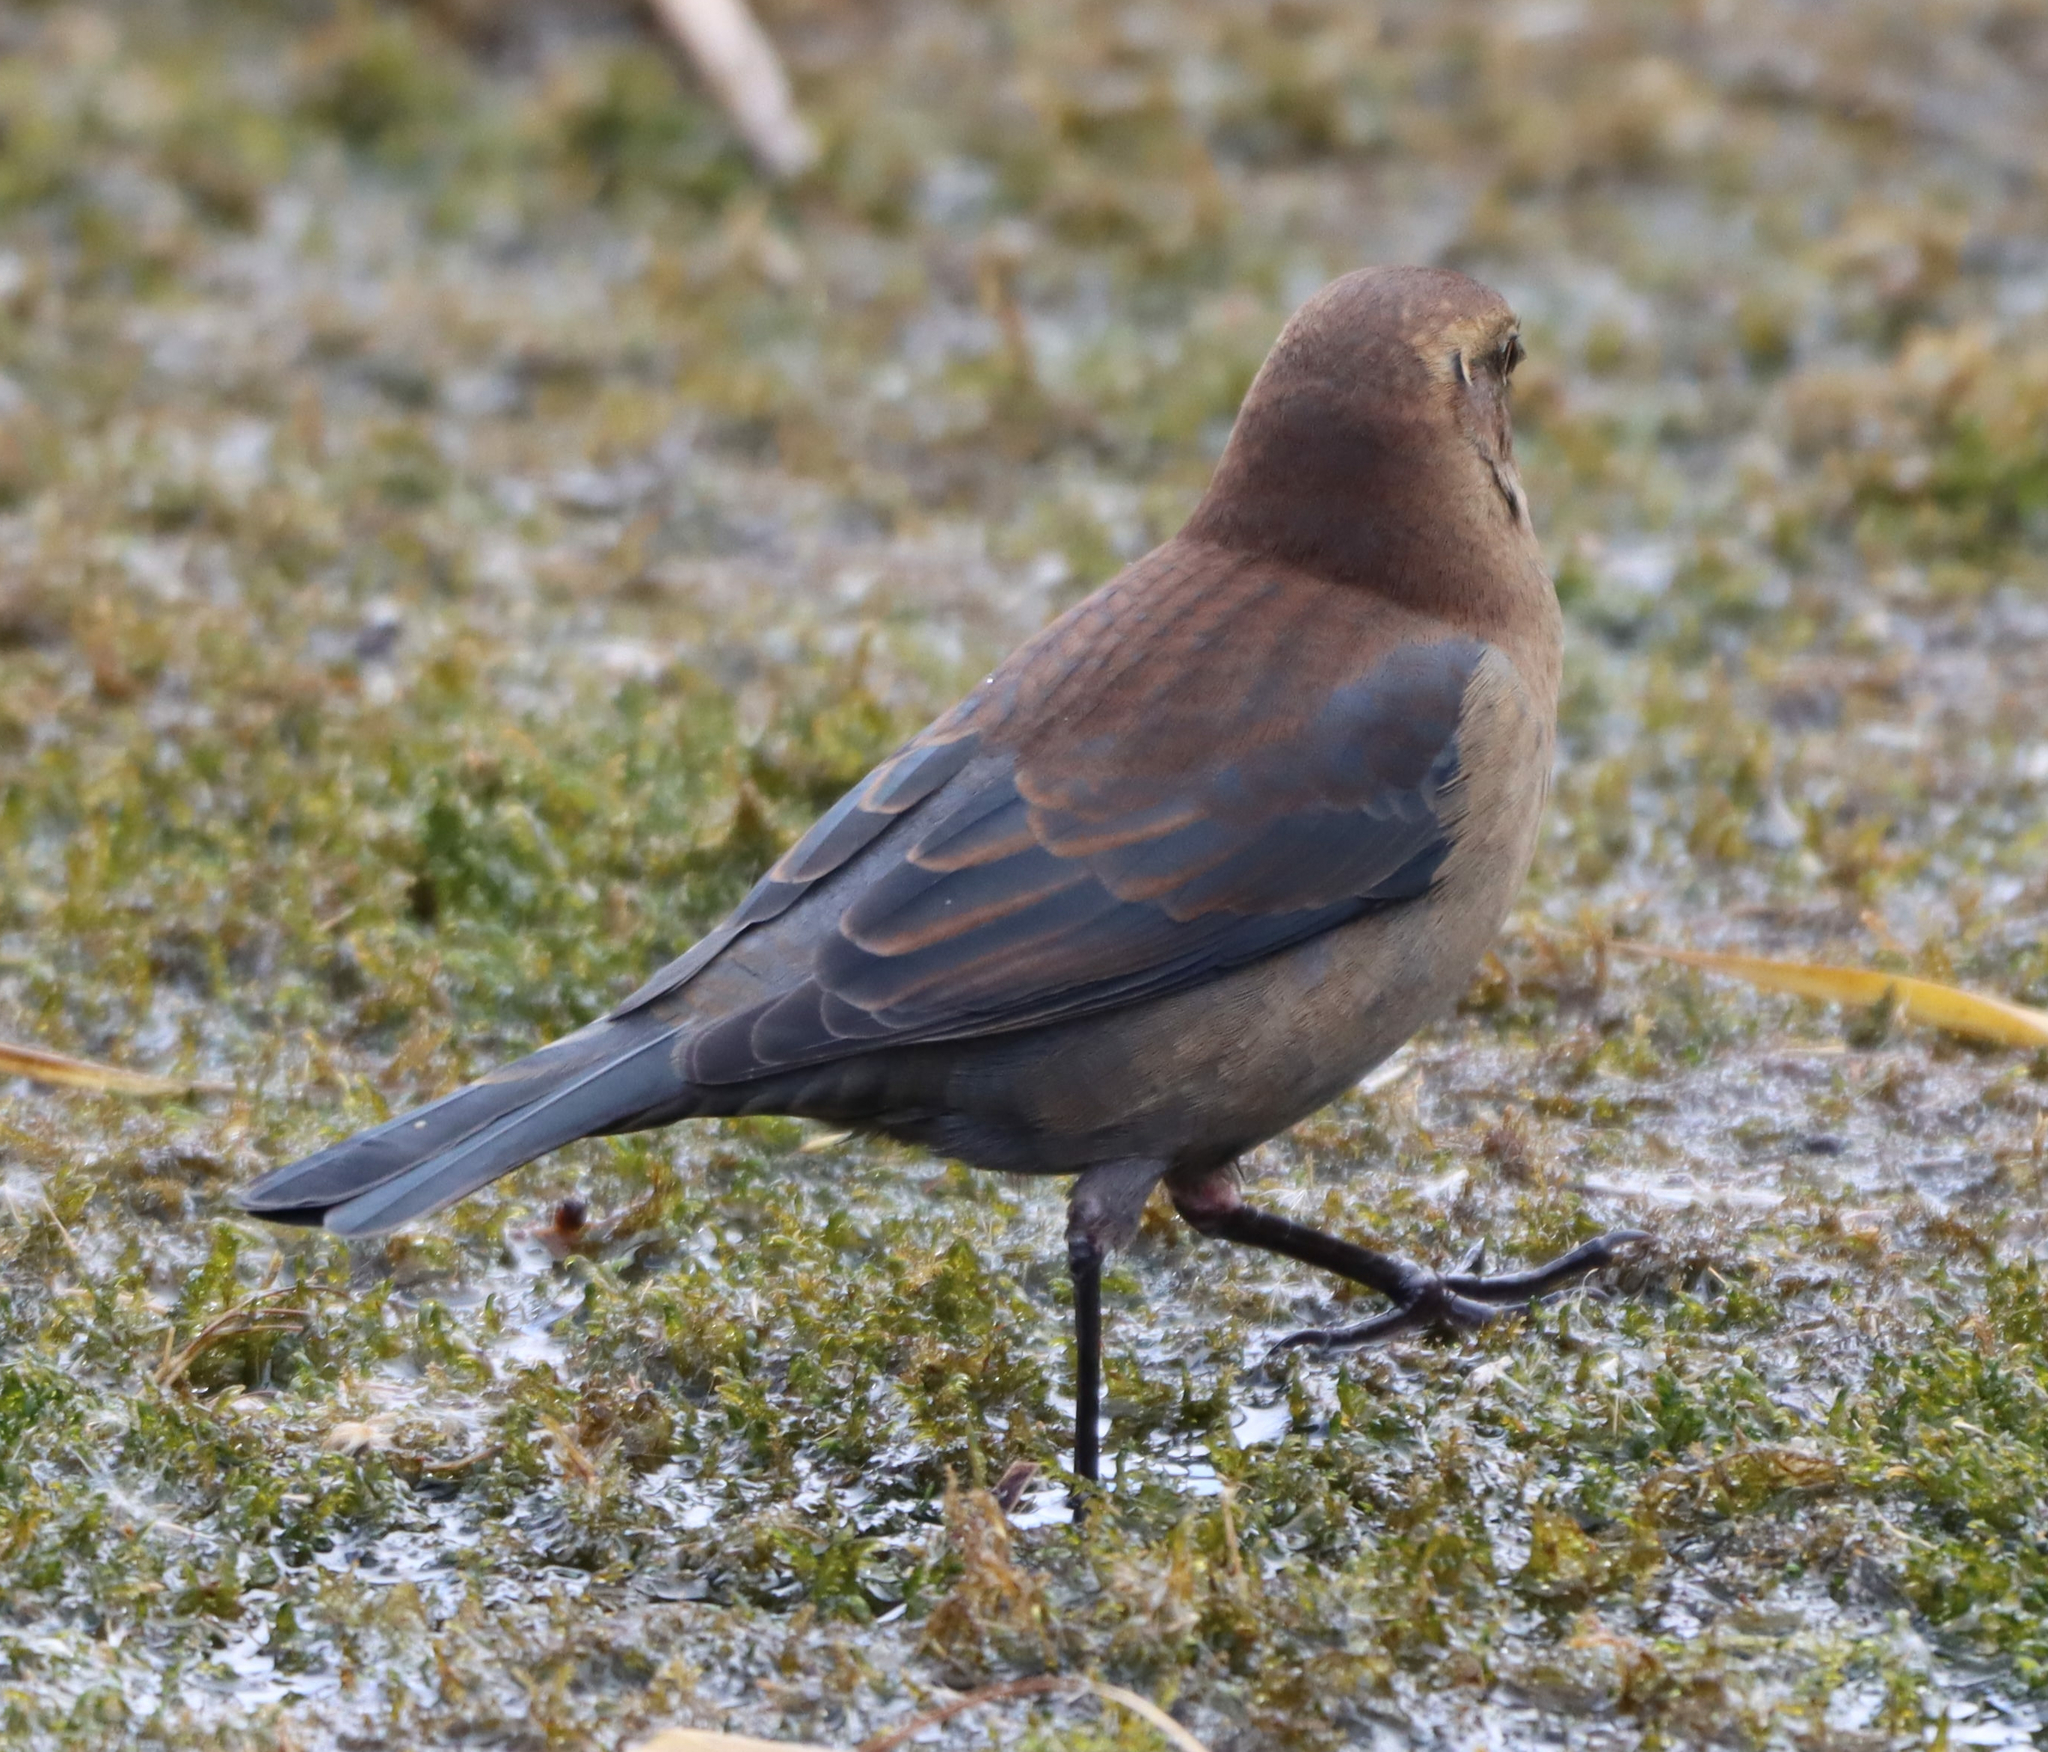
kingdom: Animalia
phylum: Chordata
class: Aves
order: Passeriformes
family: Icteridae
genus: Euphagus
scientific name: Euphagus carolinus
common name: Rusty blackbird
